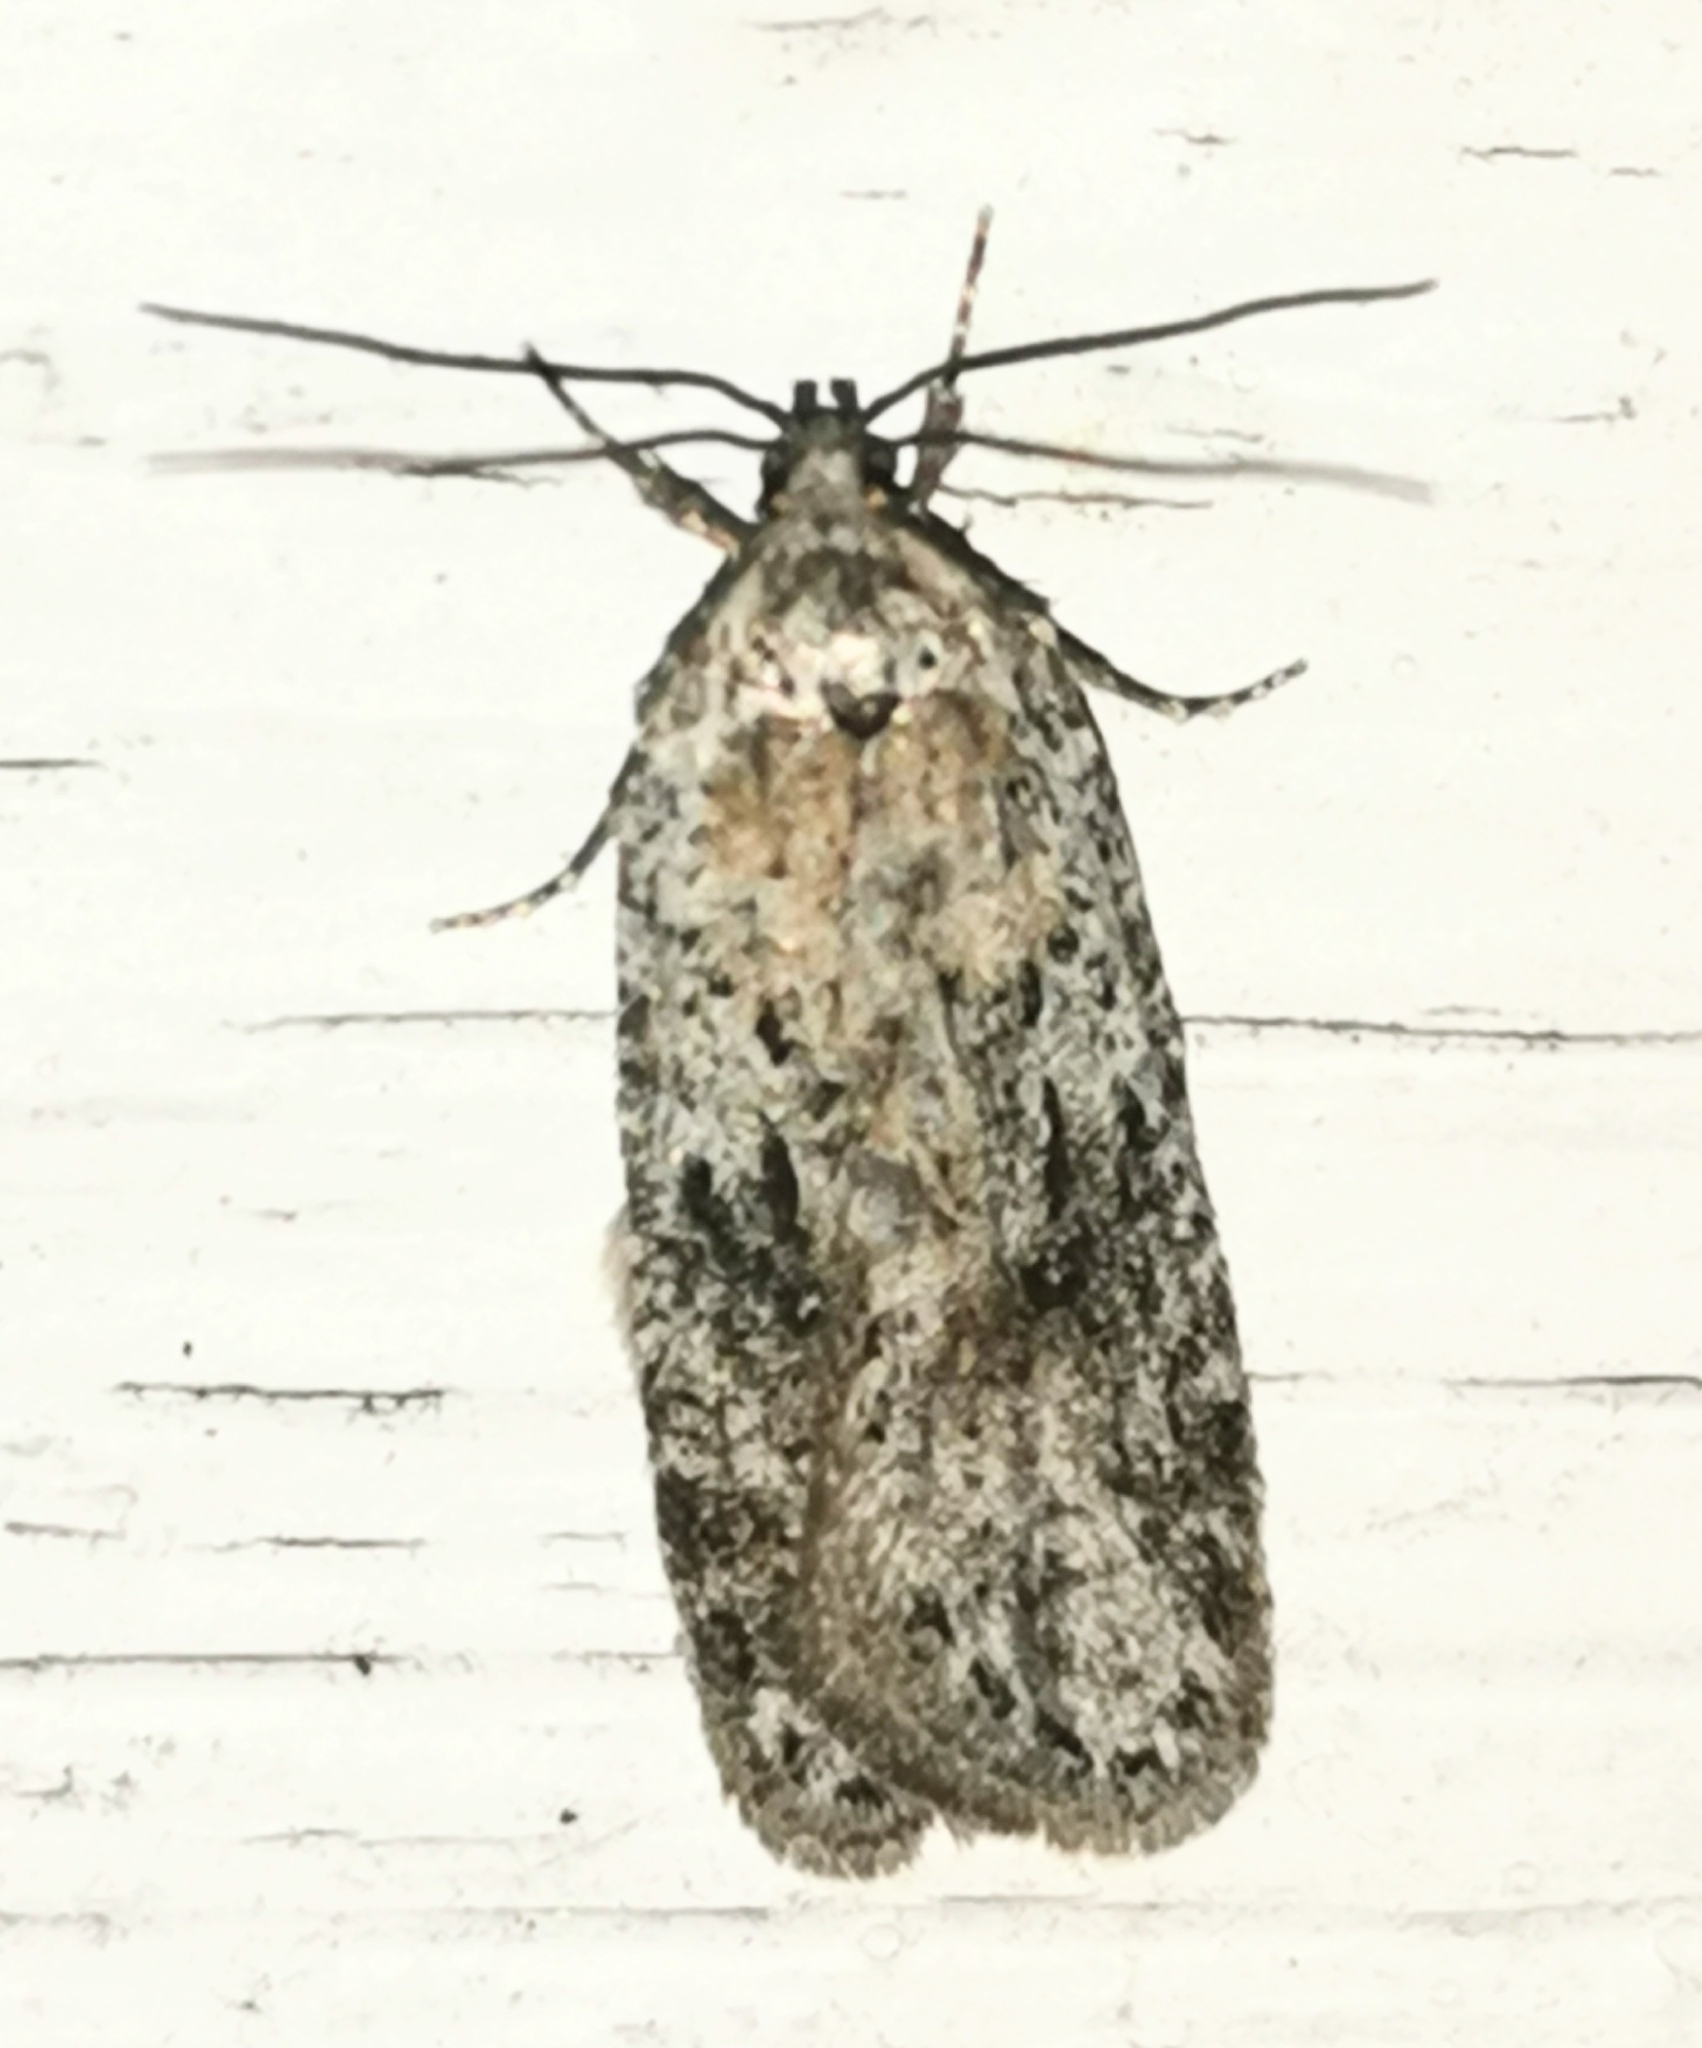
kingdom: Animalia
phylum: Arthropoda
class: Insecta
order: Lepidoptera
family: Depressariidae
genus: Exaeretia
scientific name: Exaeretia ciniflonella
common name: Scotch flat-body
